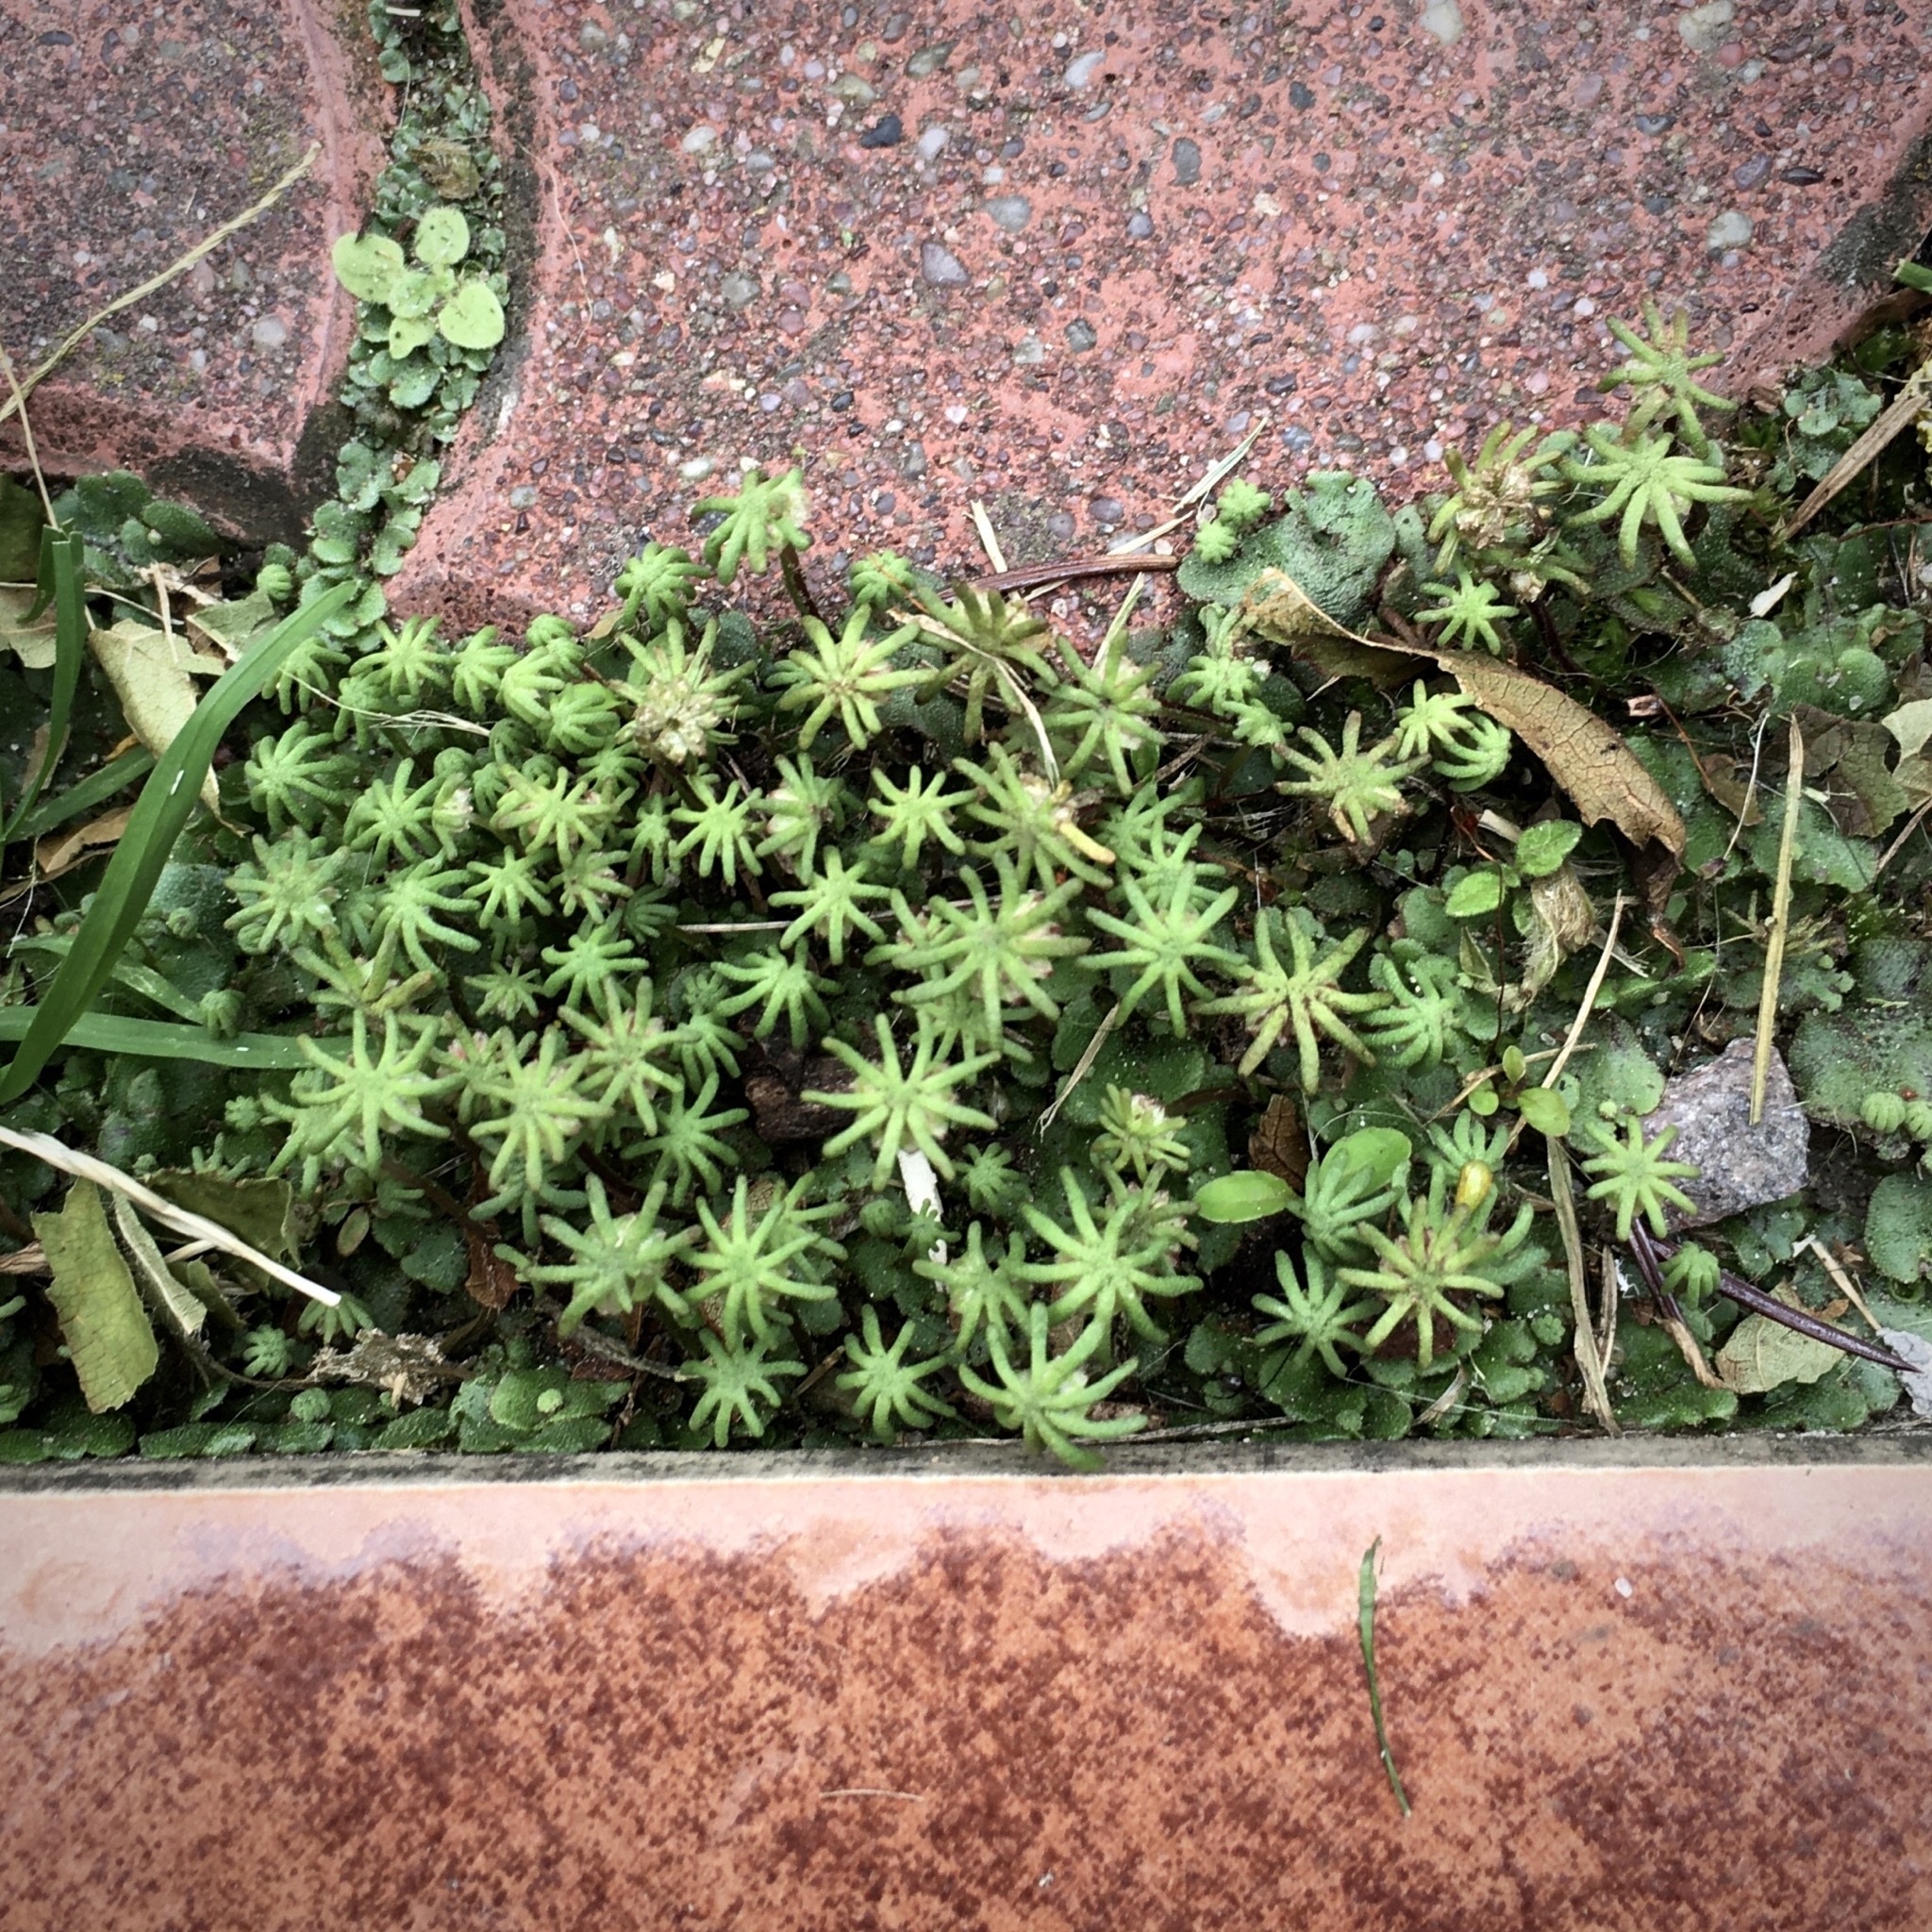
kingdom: Plantae
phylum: Marchantiophyta
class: Marchantiopsida
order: Marchantiales
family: Marchantiaceae
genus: Marchantia
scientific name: Marchantia polymorpha
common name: Common liverwort
